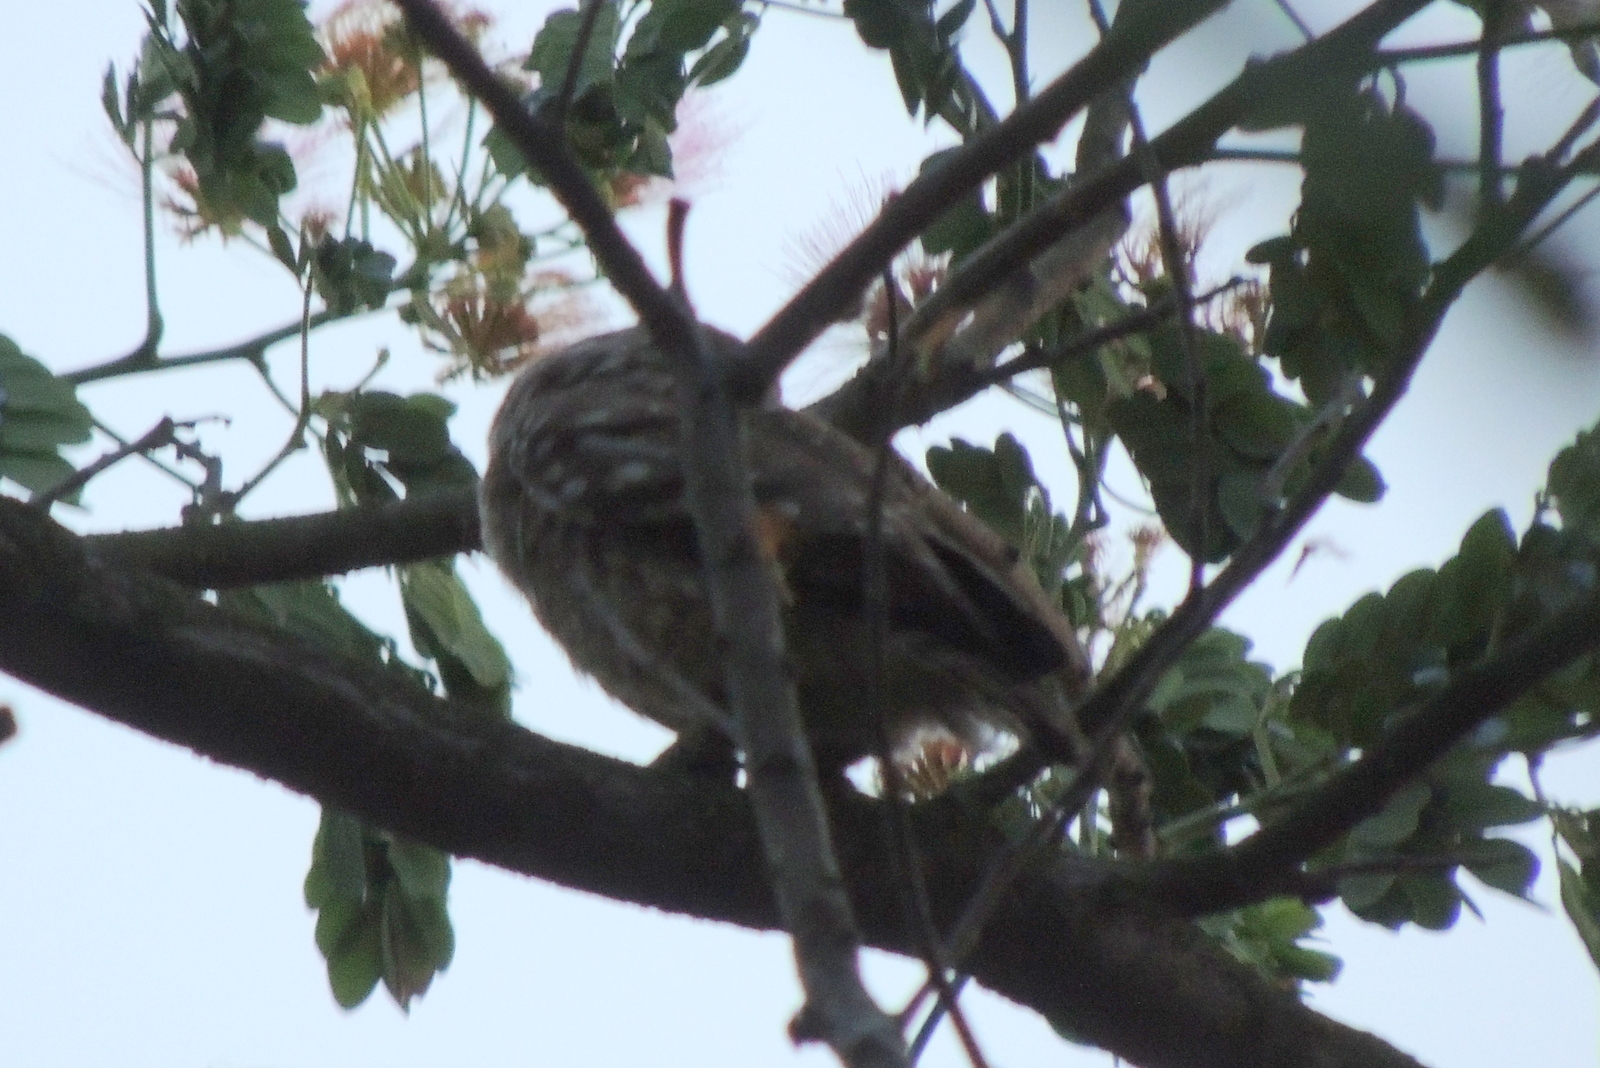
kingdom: Animalia
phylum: Chordata
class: Aves
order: Strigiformes
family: Strigidae
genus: Athene
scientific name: Athene brama
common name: Spotted owlet
